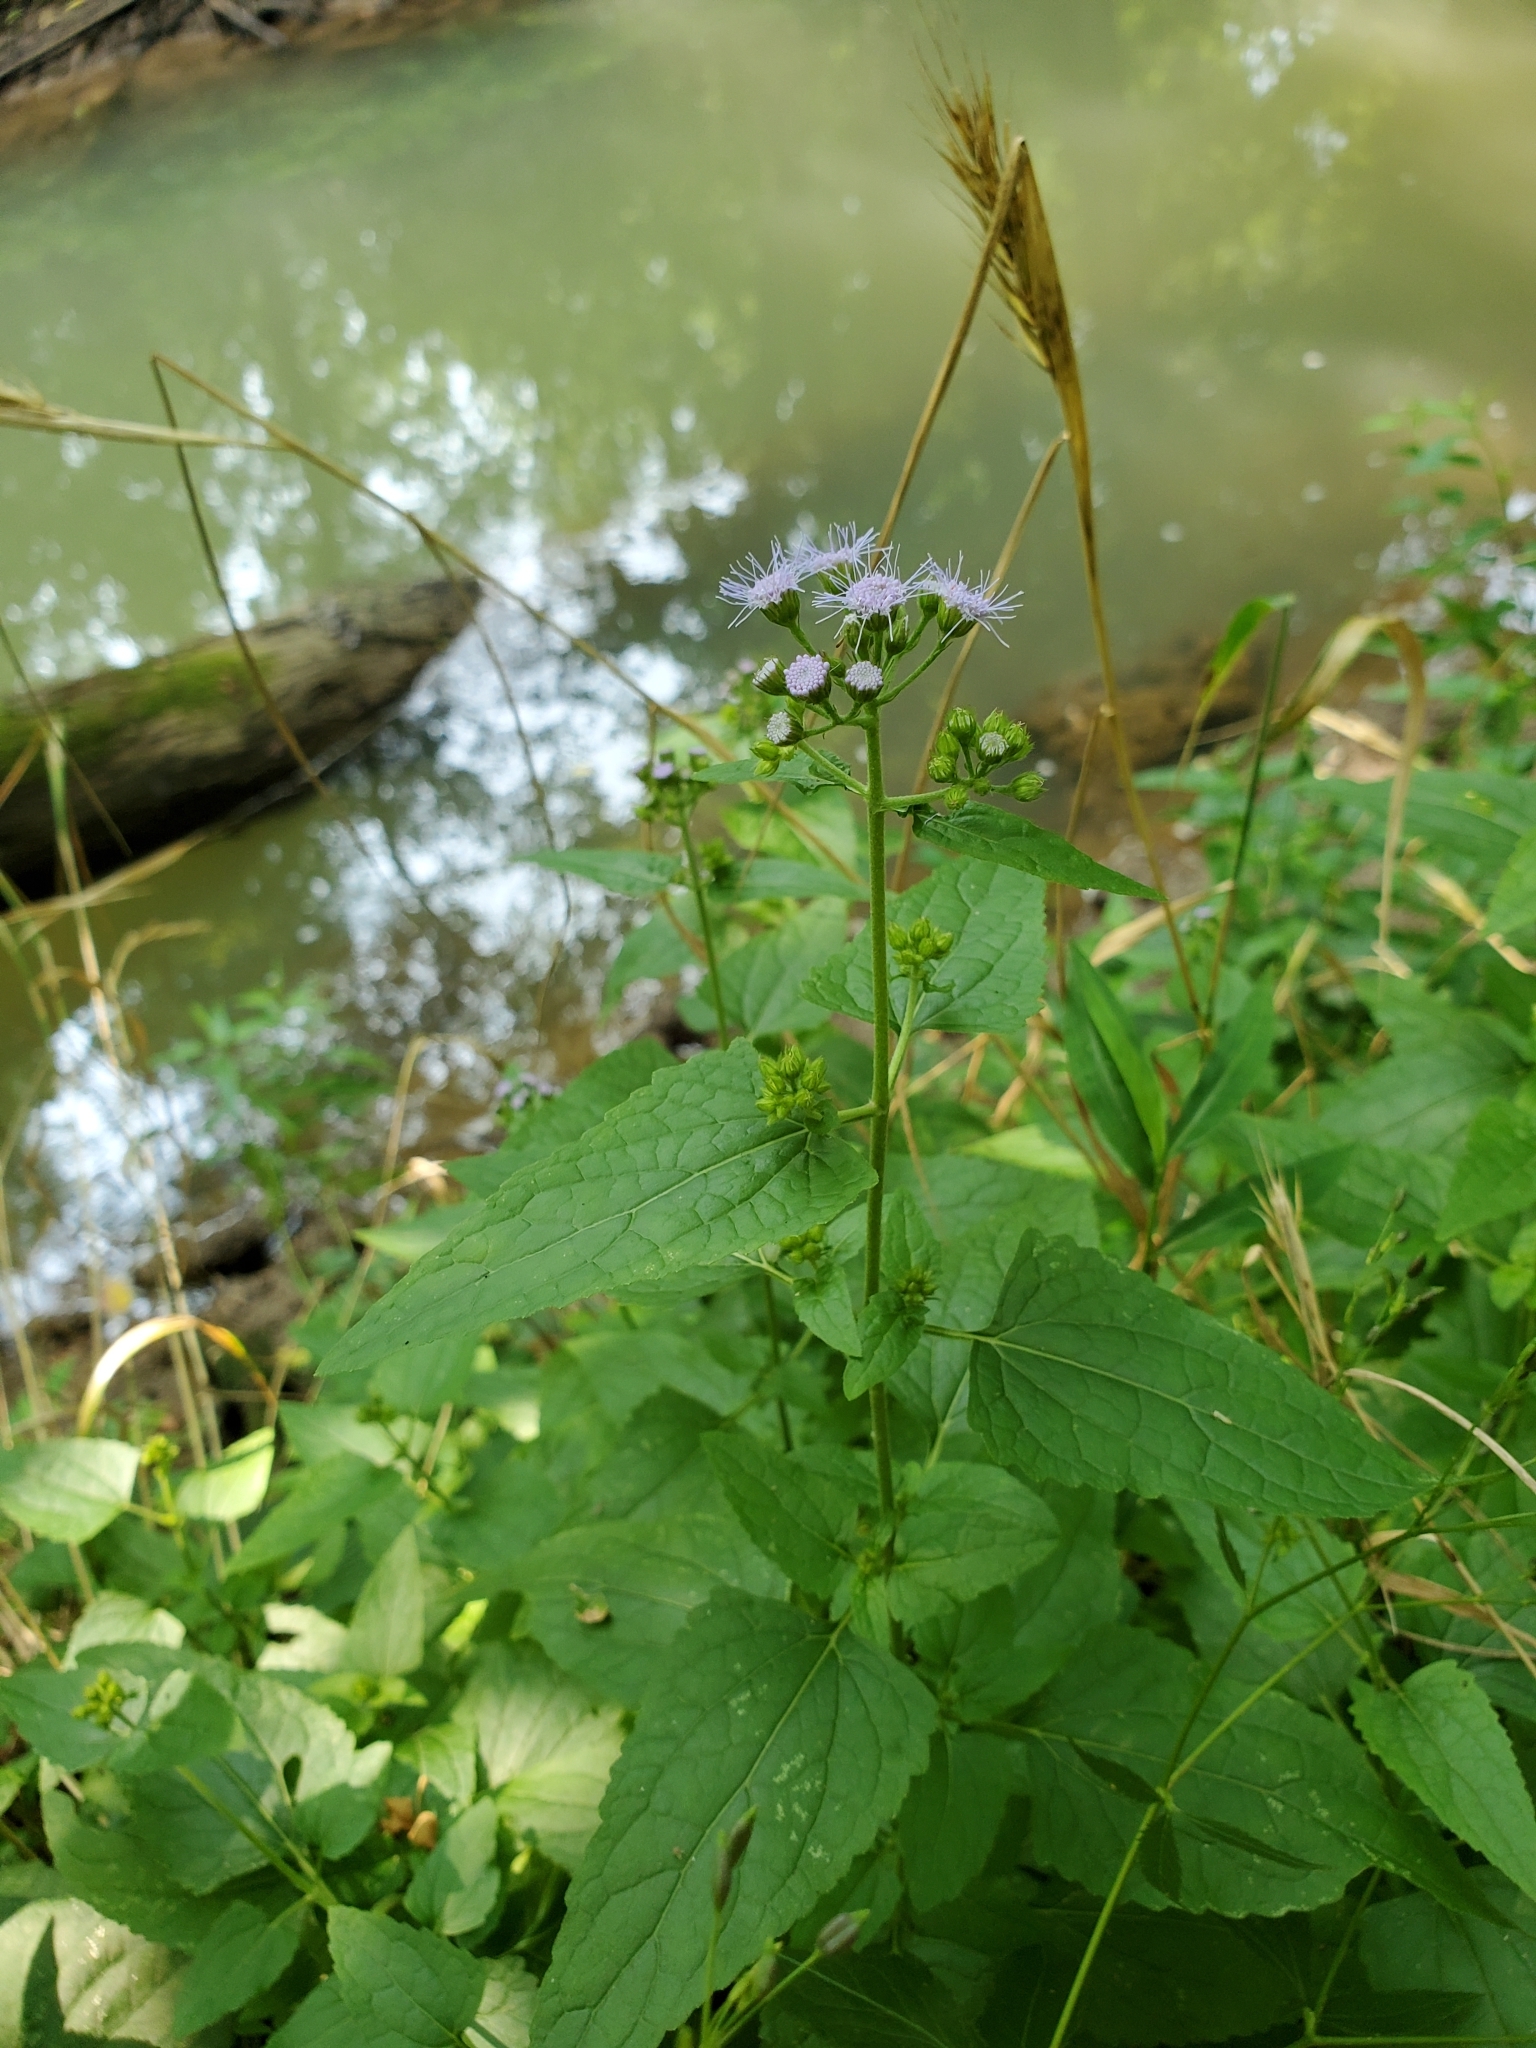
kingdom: Plantae
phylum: Tracheophyta
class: Magnoliopsida
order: Asterales
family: Asteraceae
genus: Conoclinium
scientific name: Conoclinium coelestinum
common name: Blue mistflower
